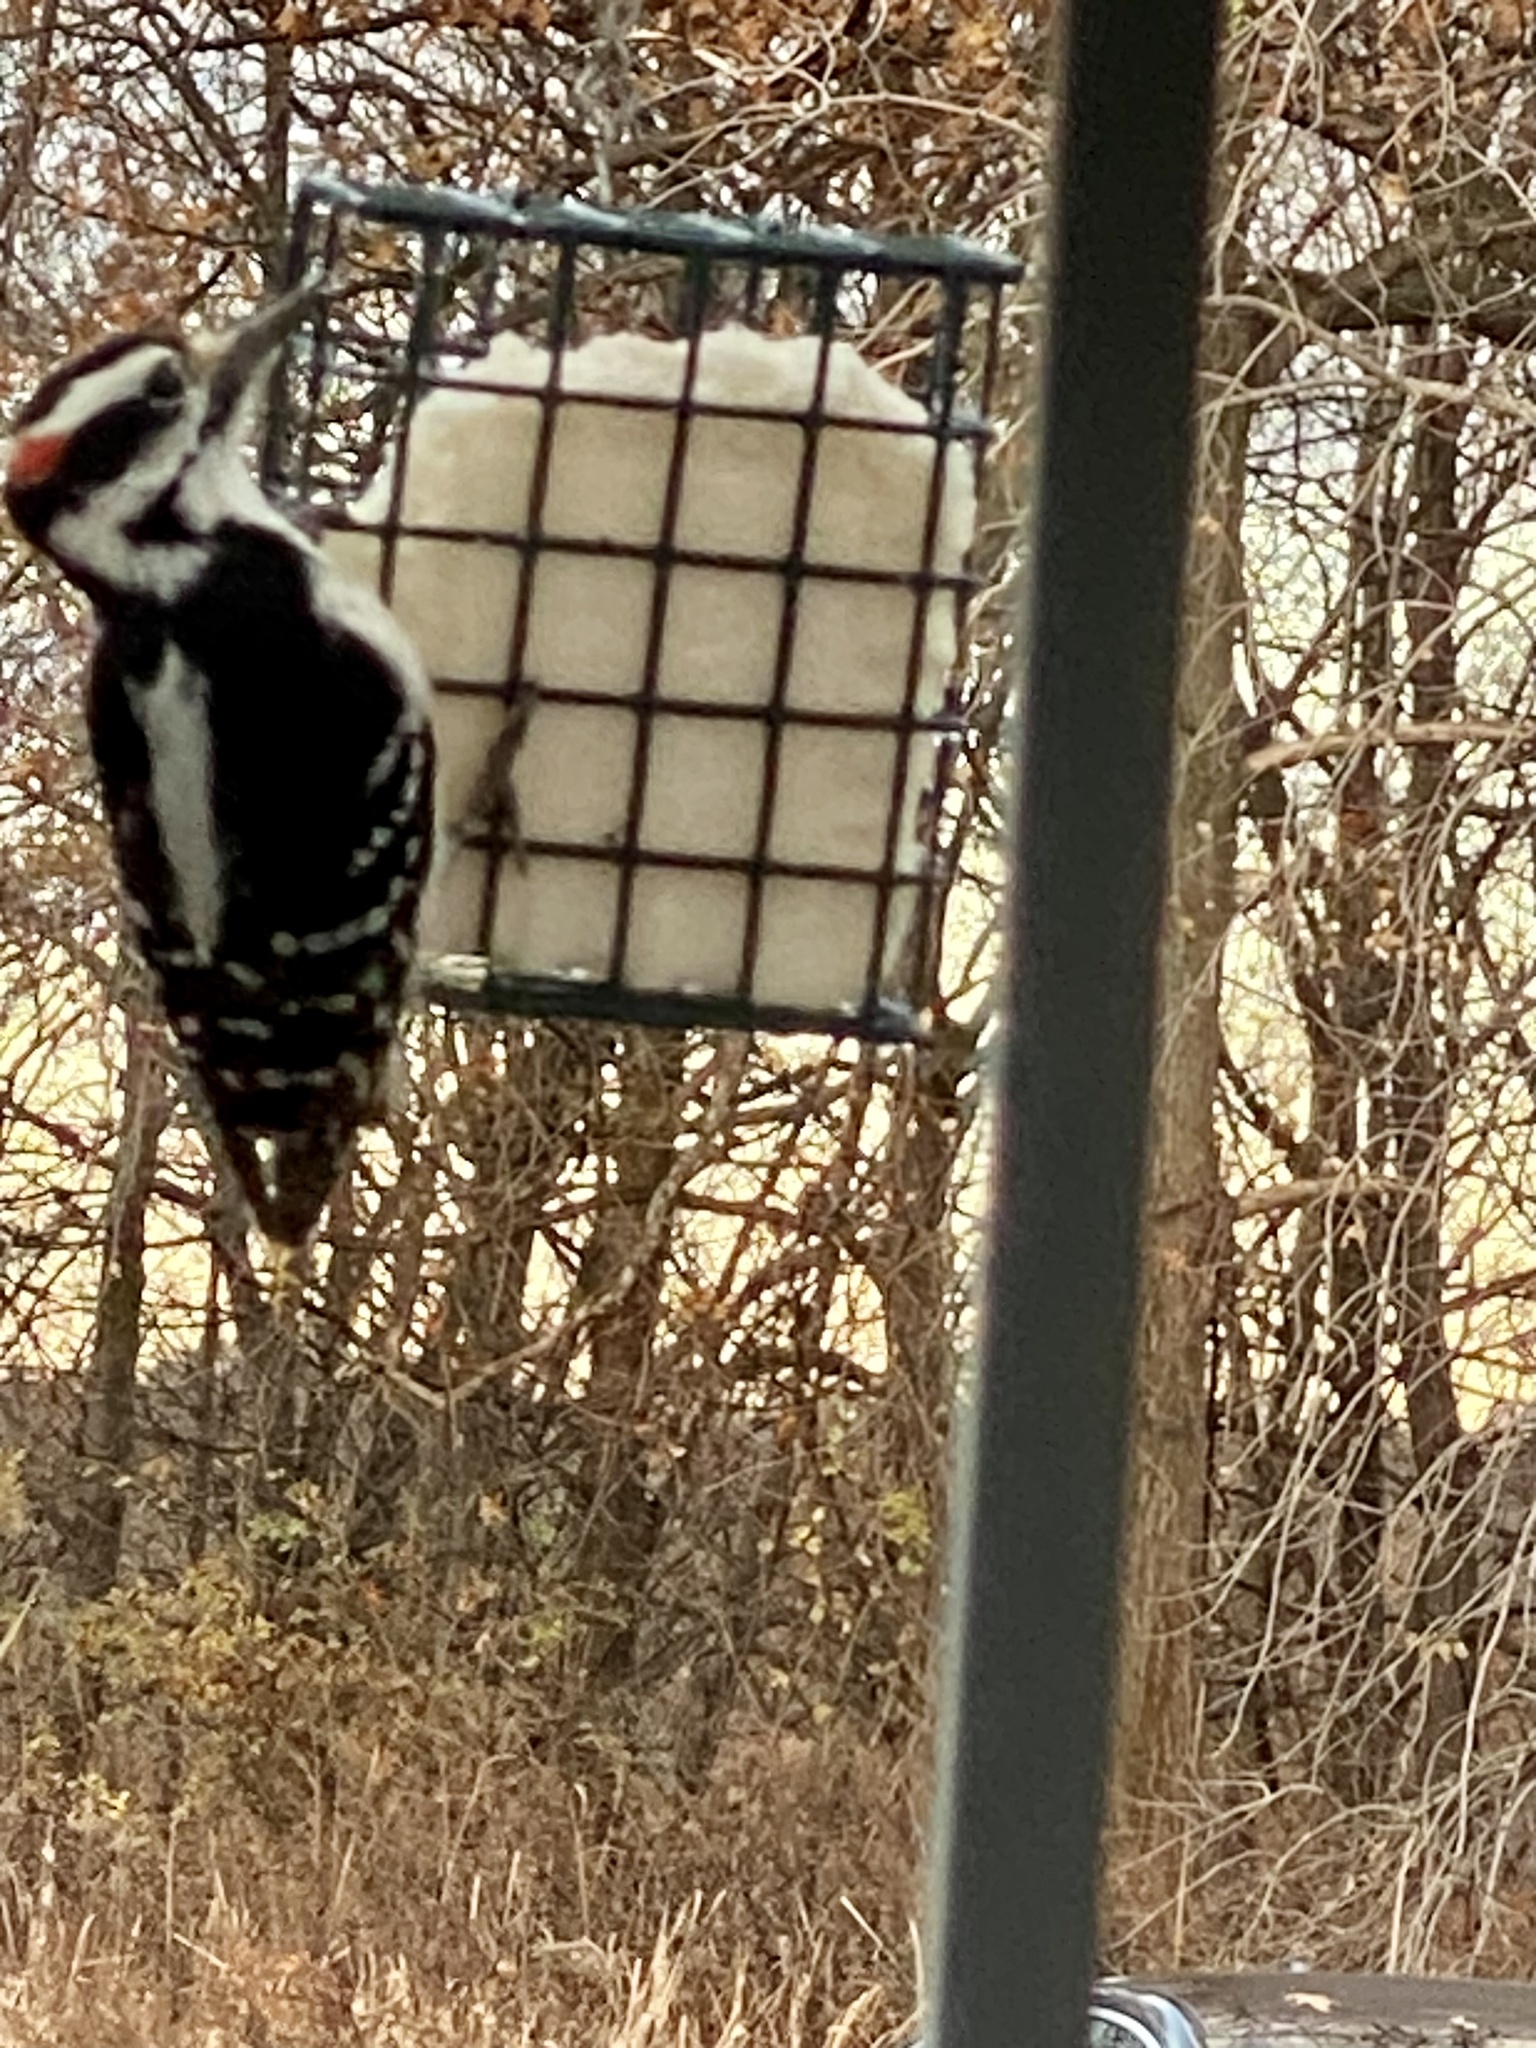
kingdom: Animalia
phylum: Chordata
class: Aves
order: Piciformes
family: Picidae
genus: Leuconotopicus
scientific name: Leuconotopicus villosus
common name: Hairy woodpecker
